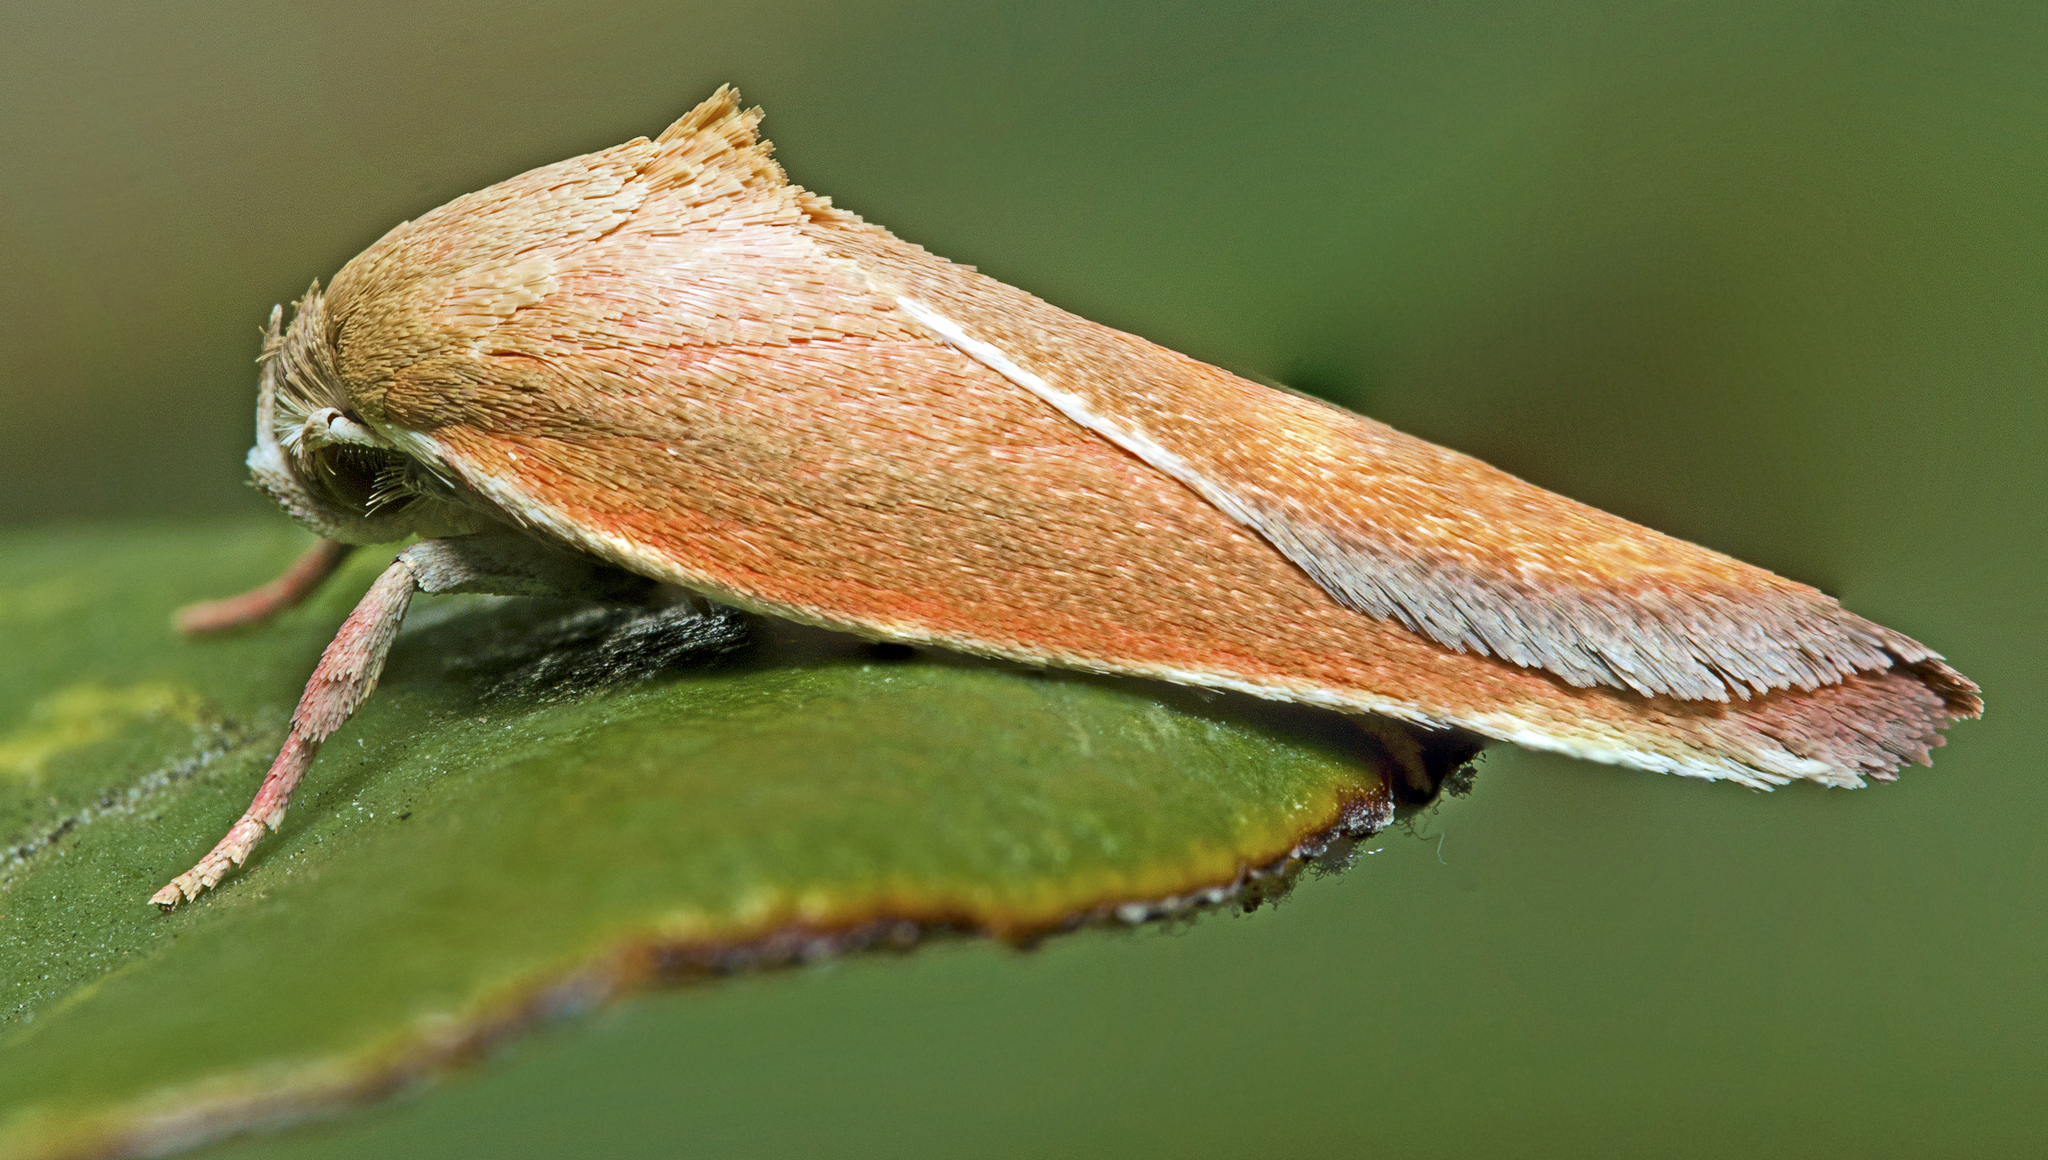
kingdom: Animalia
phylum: Arthropoda
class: Insecta
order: Lepidoptera
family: Oecophoridae
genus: Ptyoptila
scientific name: Ptyoptila matutinella
